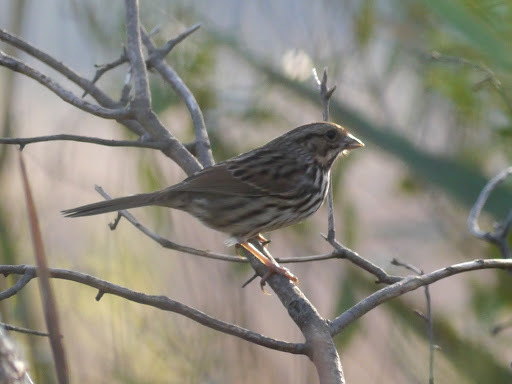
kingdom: Animalia
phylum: Chordata
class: Aves
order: Passeriformes
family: Passerellidae
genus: Melospiza
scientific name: Melospiza melodia
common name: Song sparrow
